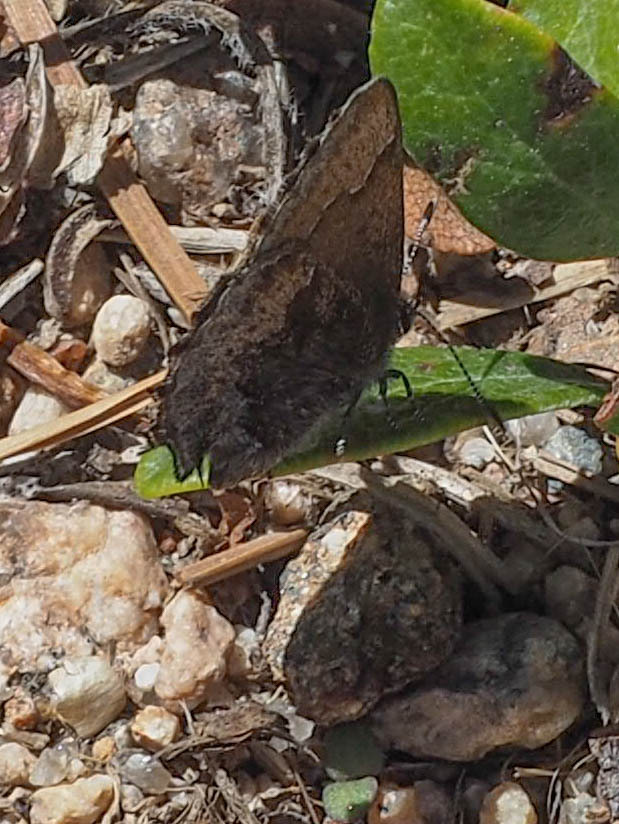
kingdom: Animalia
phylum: Arthropoda
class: Insecta
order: Lepidoptera
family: Lycaenidae
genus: Callophrys
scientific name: Callophrys polios
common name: Hoary elfin
